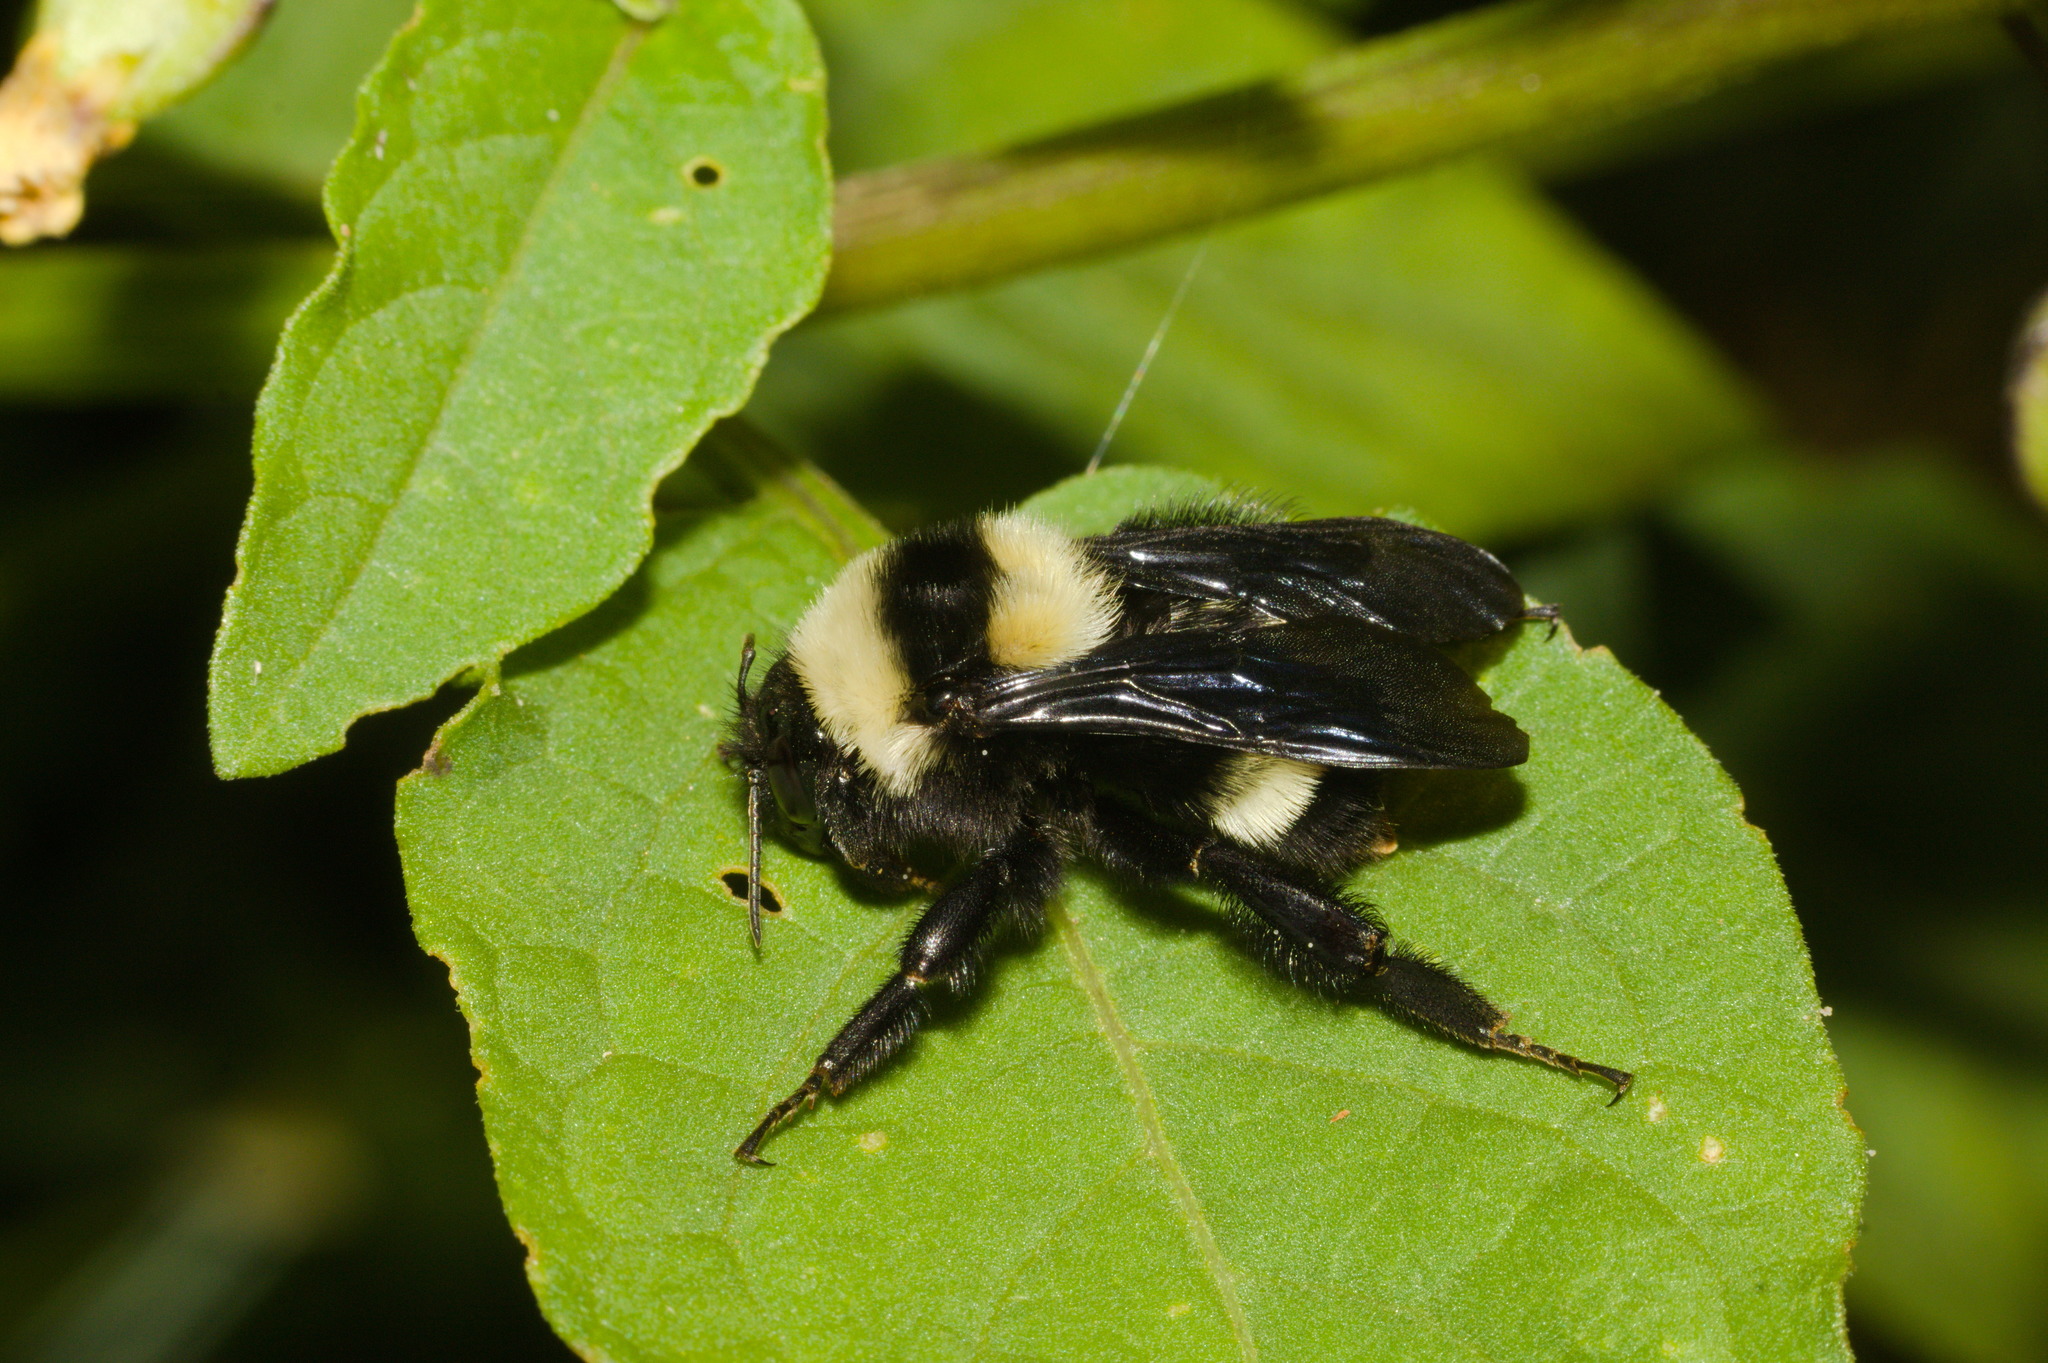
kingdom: Animalia
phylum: Arthropoda
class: Insecta
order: Hymenoptera
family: Apidae
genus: Bombus
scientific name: Bombus pauloensis
